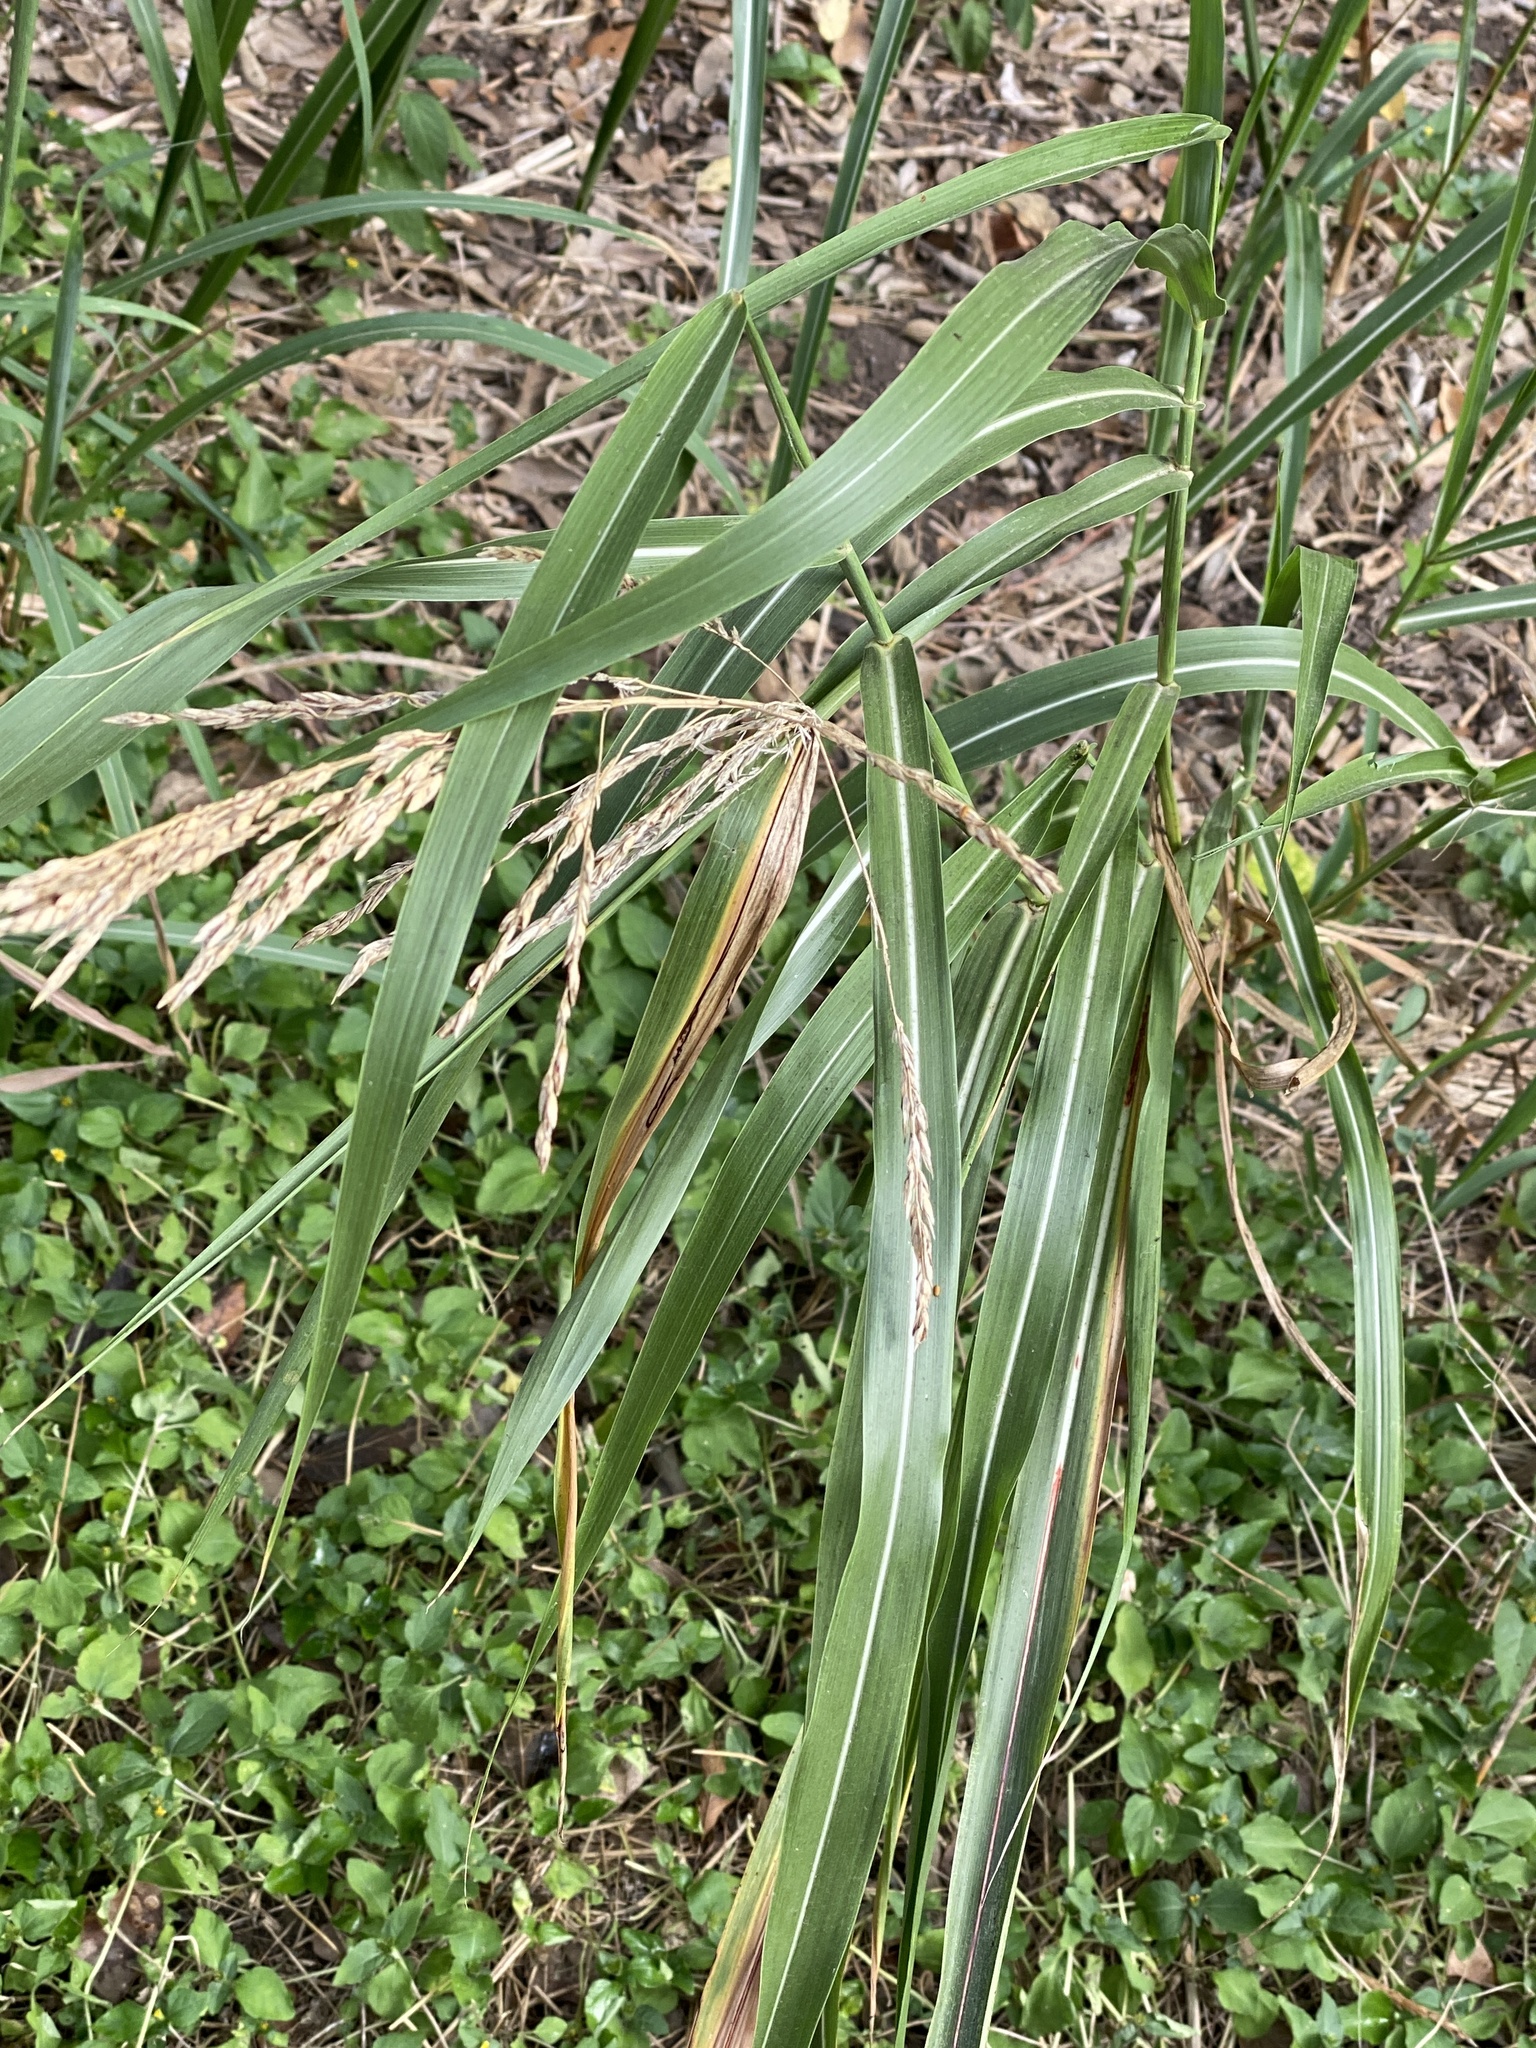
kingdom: Plantae
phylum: Tracheophyta
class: Liliopsida
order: Poales
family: Poaceae
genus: Sorghum
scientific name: Sorghum halepense
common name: Johnson-grass
